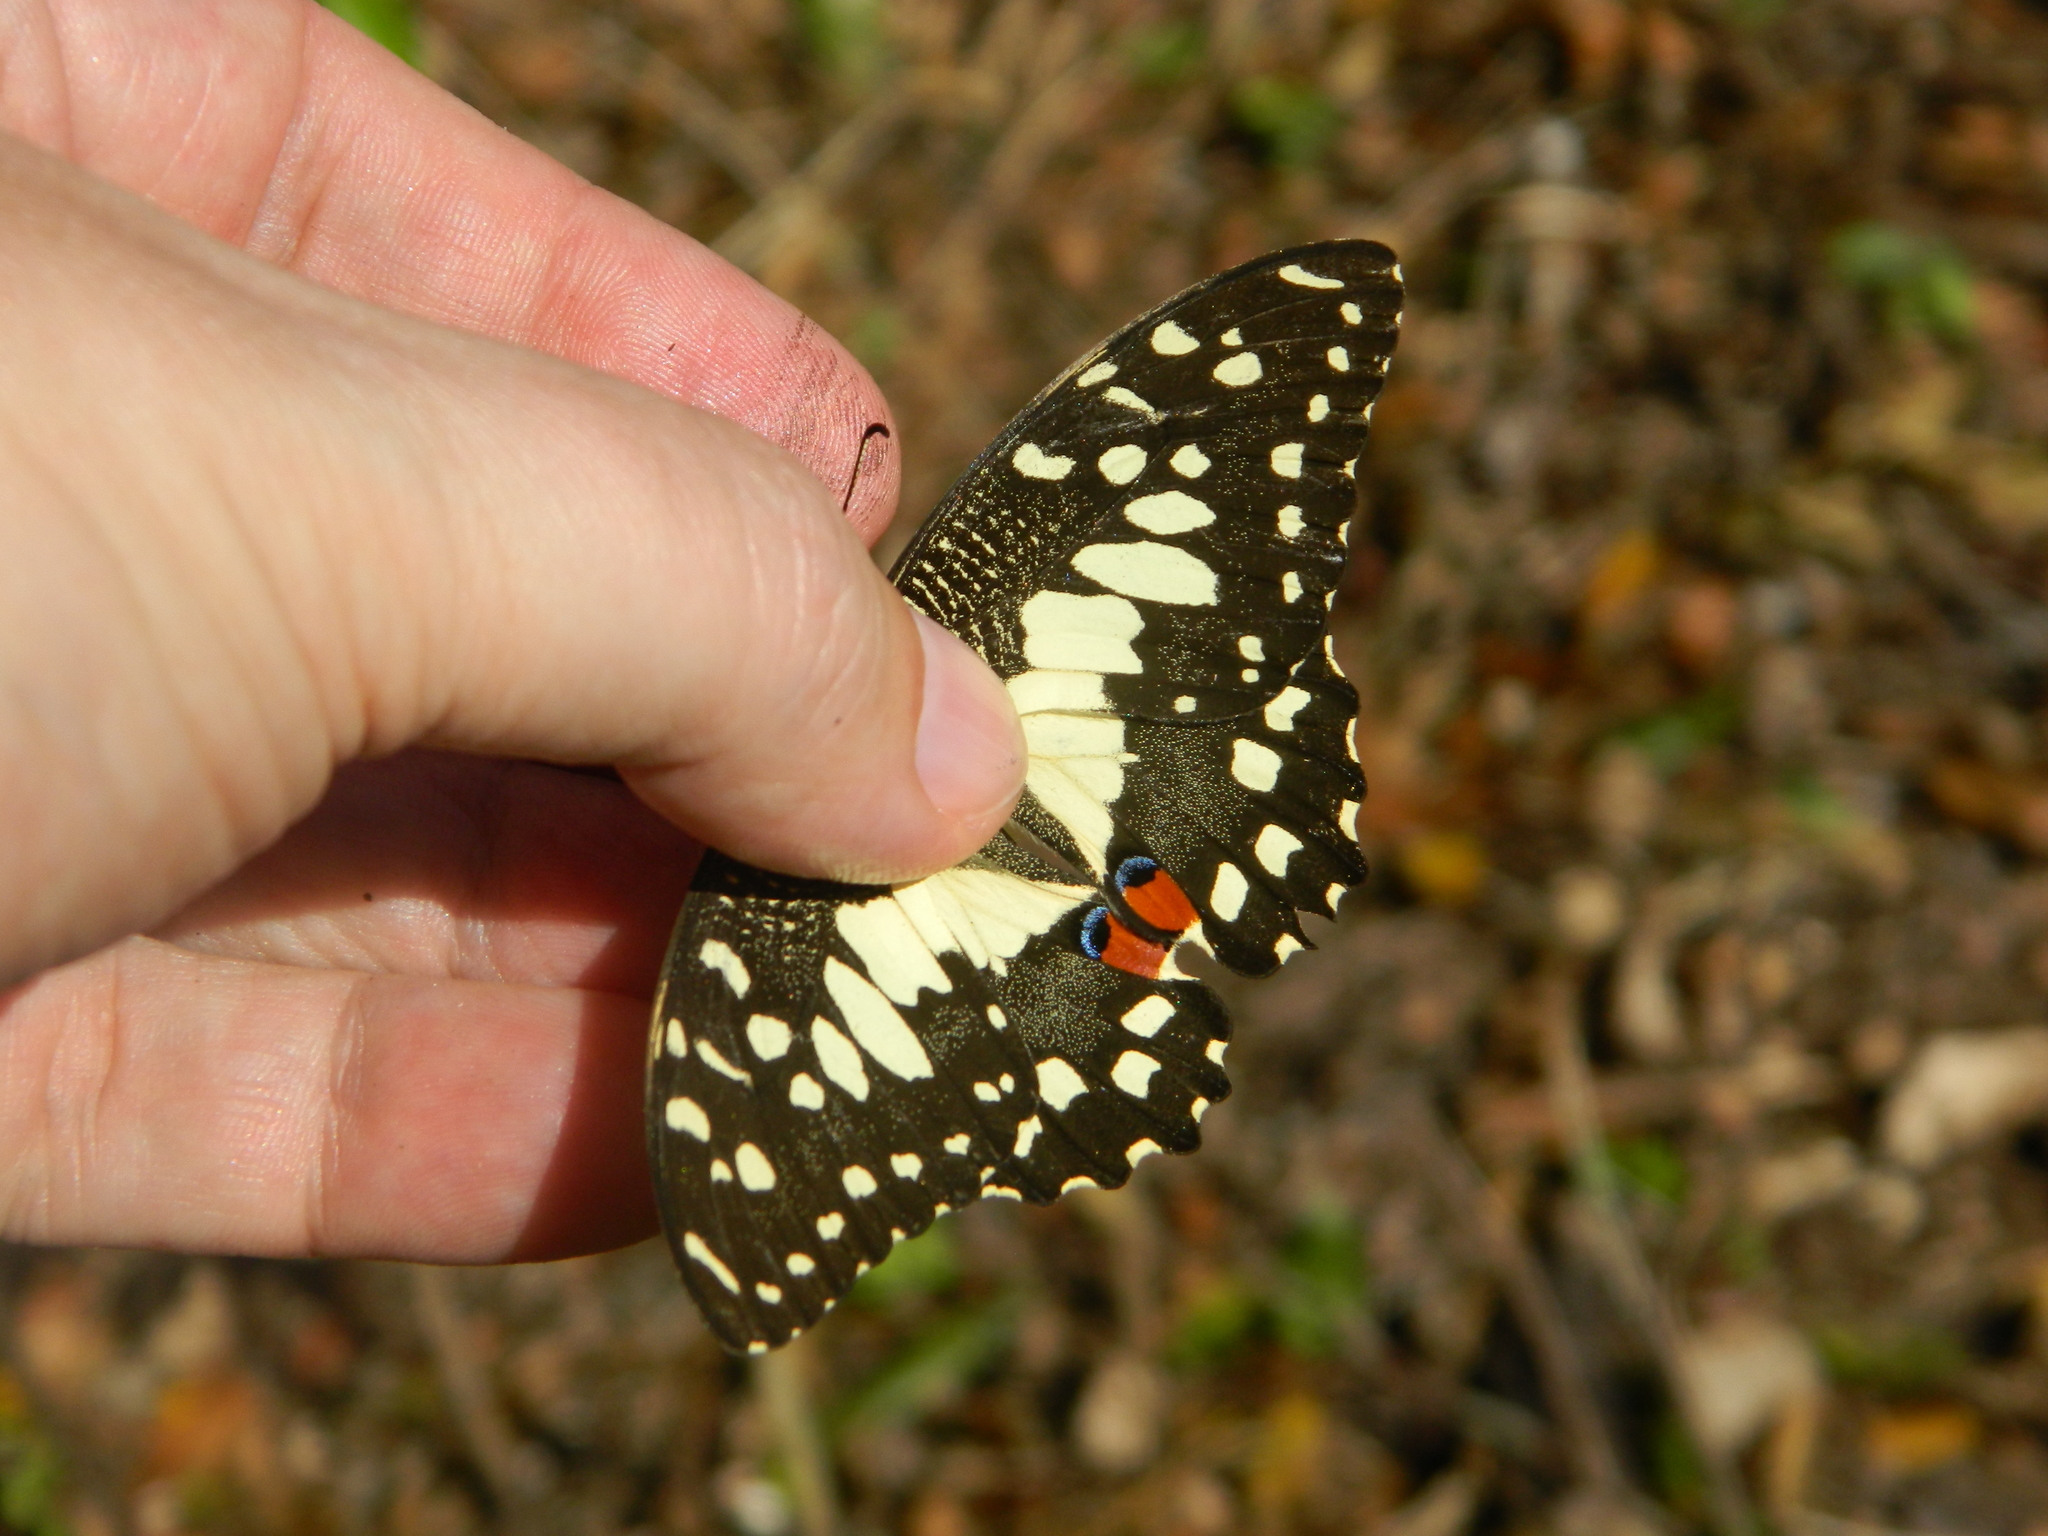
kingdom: Animalia
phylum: Arthropoda
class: Insecta
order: Lepidoptera
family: Papilionidae
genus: Papilio
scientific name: Papilio demoleus
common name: Lime butterfly
